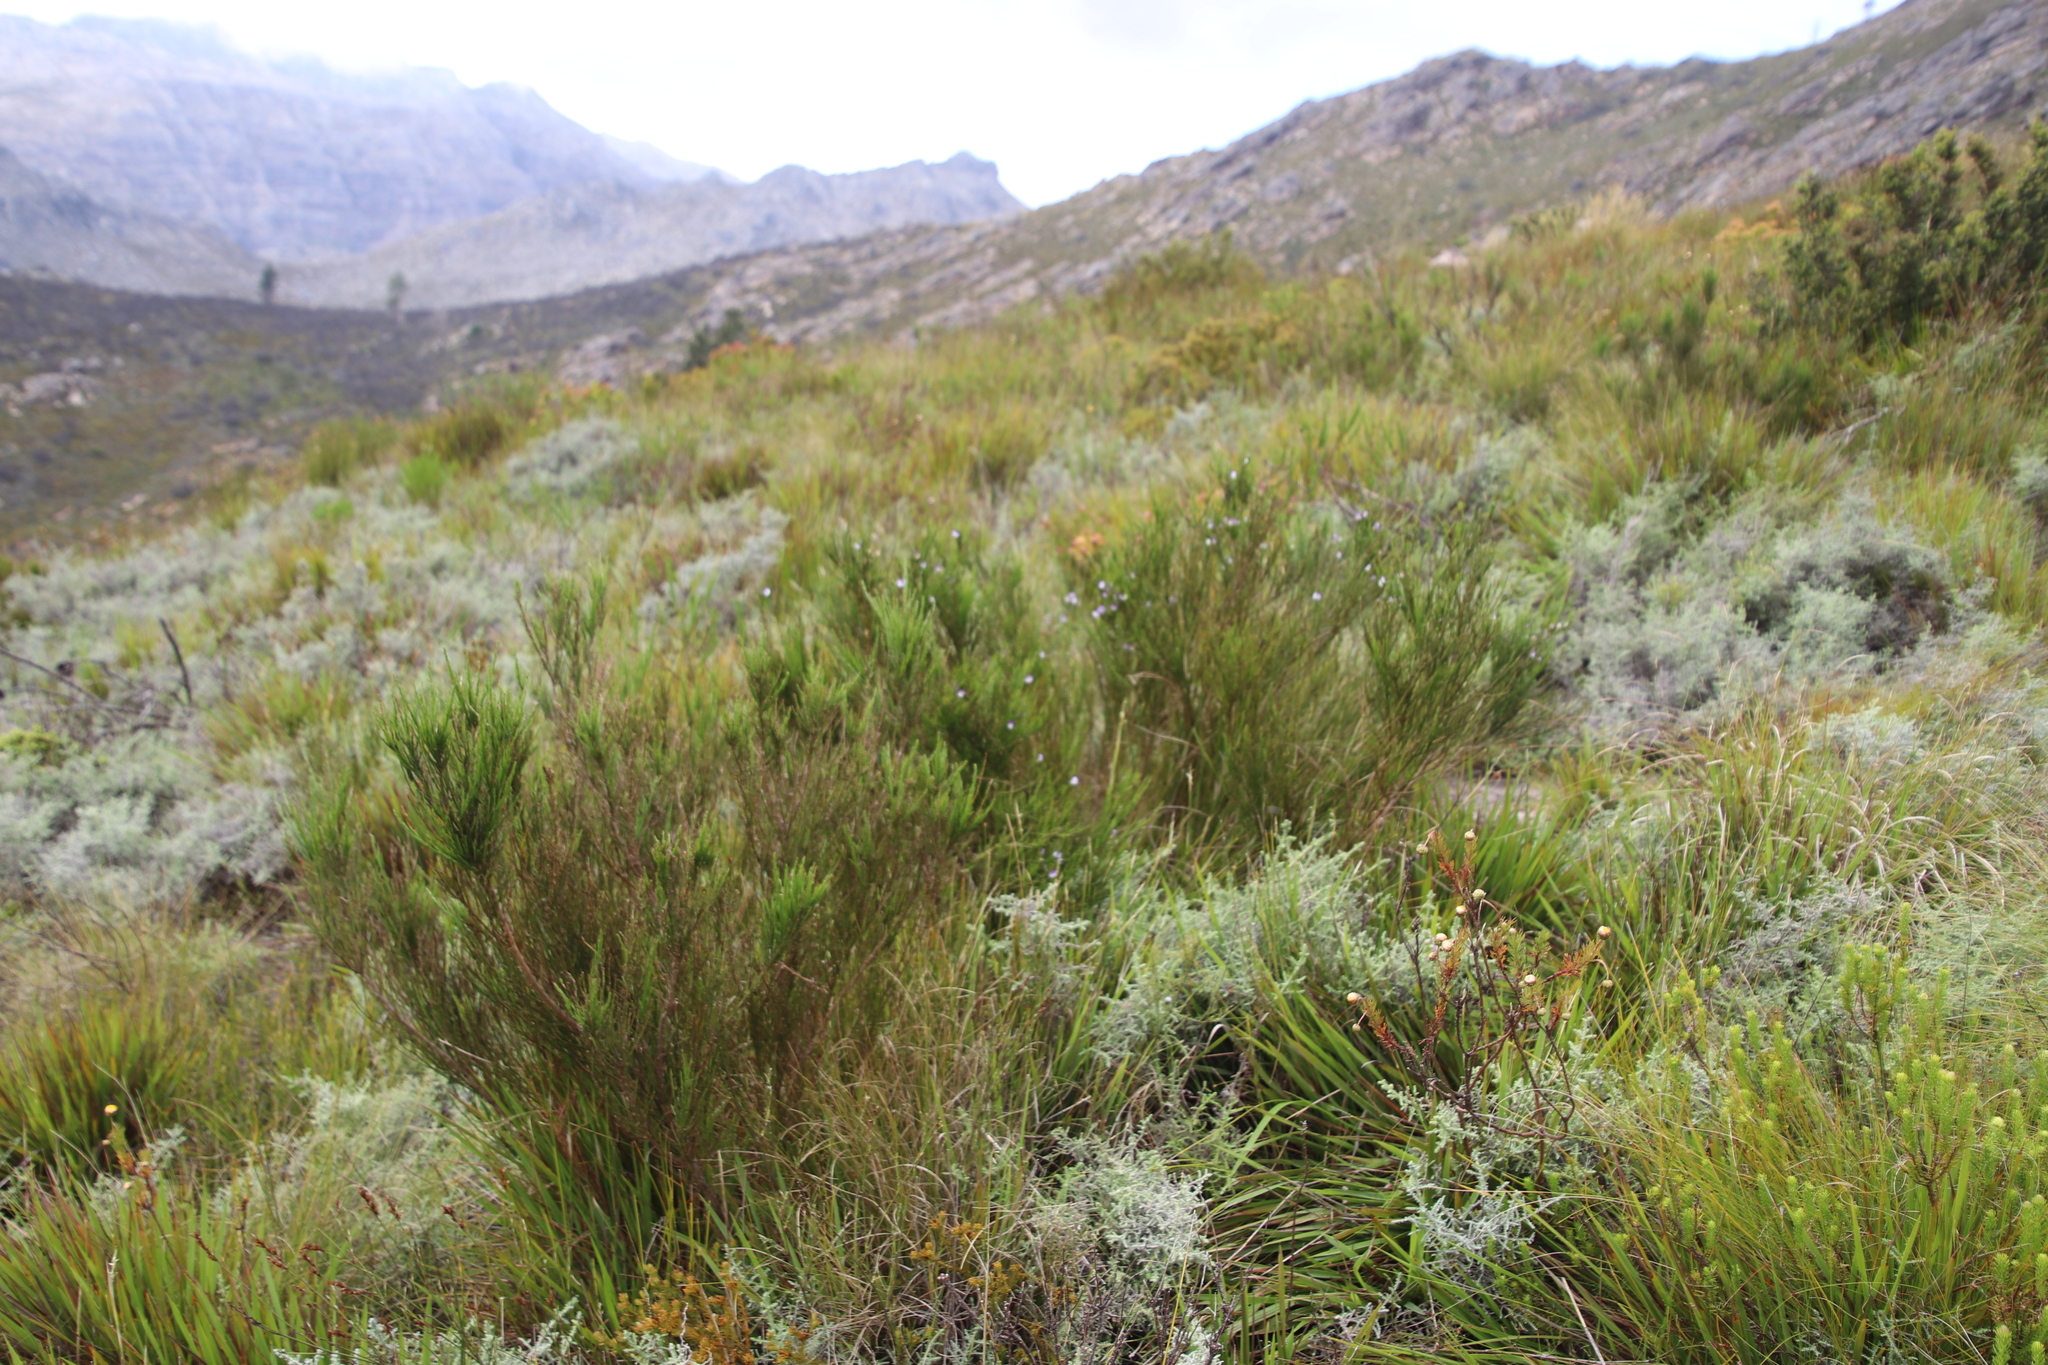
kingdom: Plantae
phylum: Tracheophyta
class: Magnoliopsida
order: Fabales
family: Fabaceae
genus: Psoralea
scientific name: Psoralea usitata
